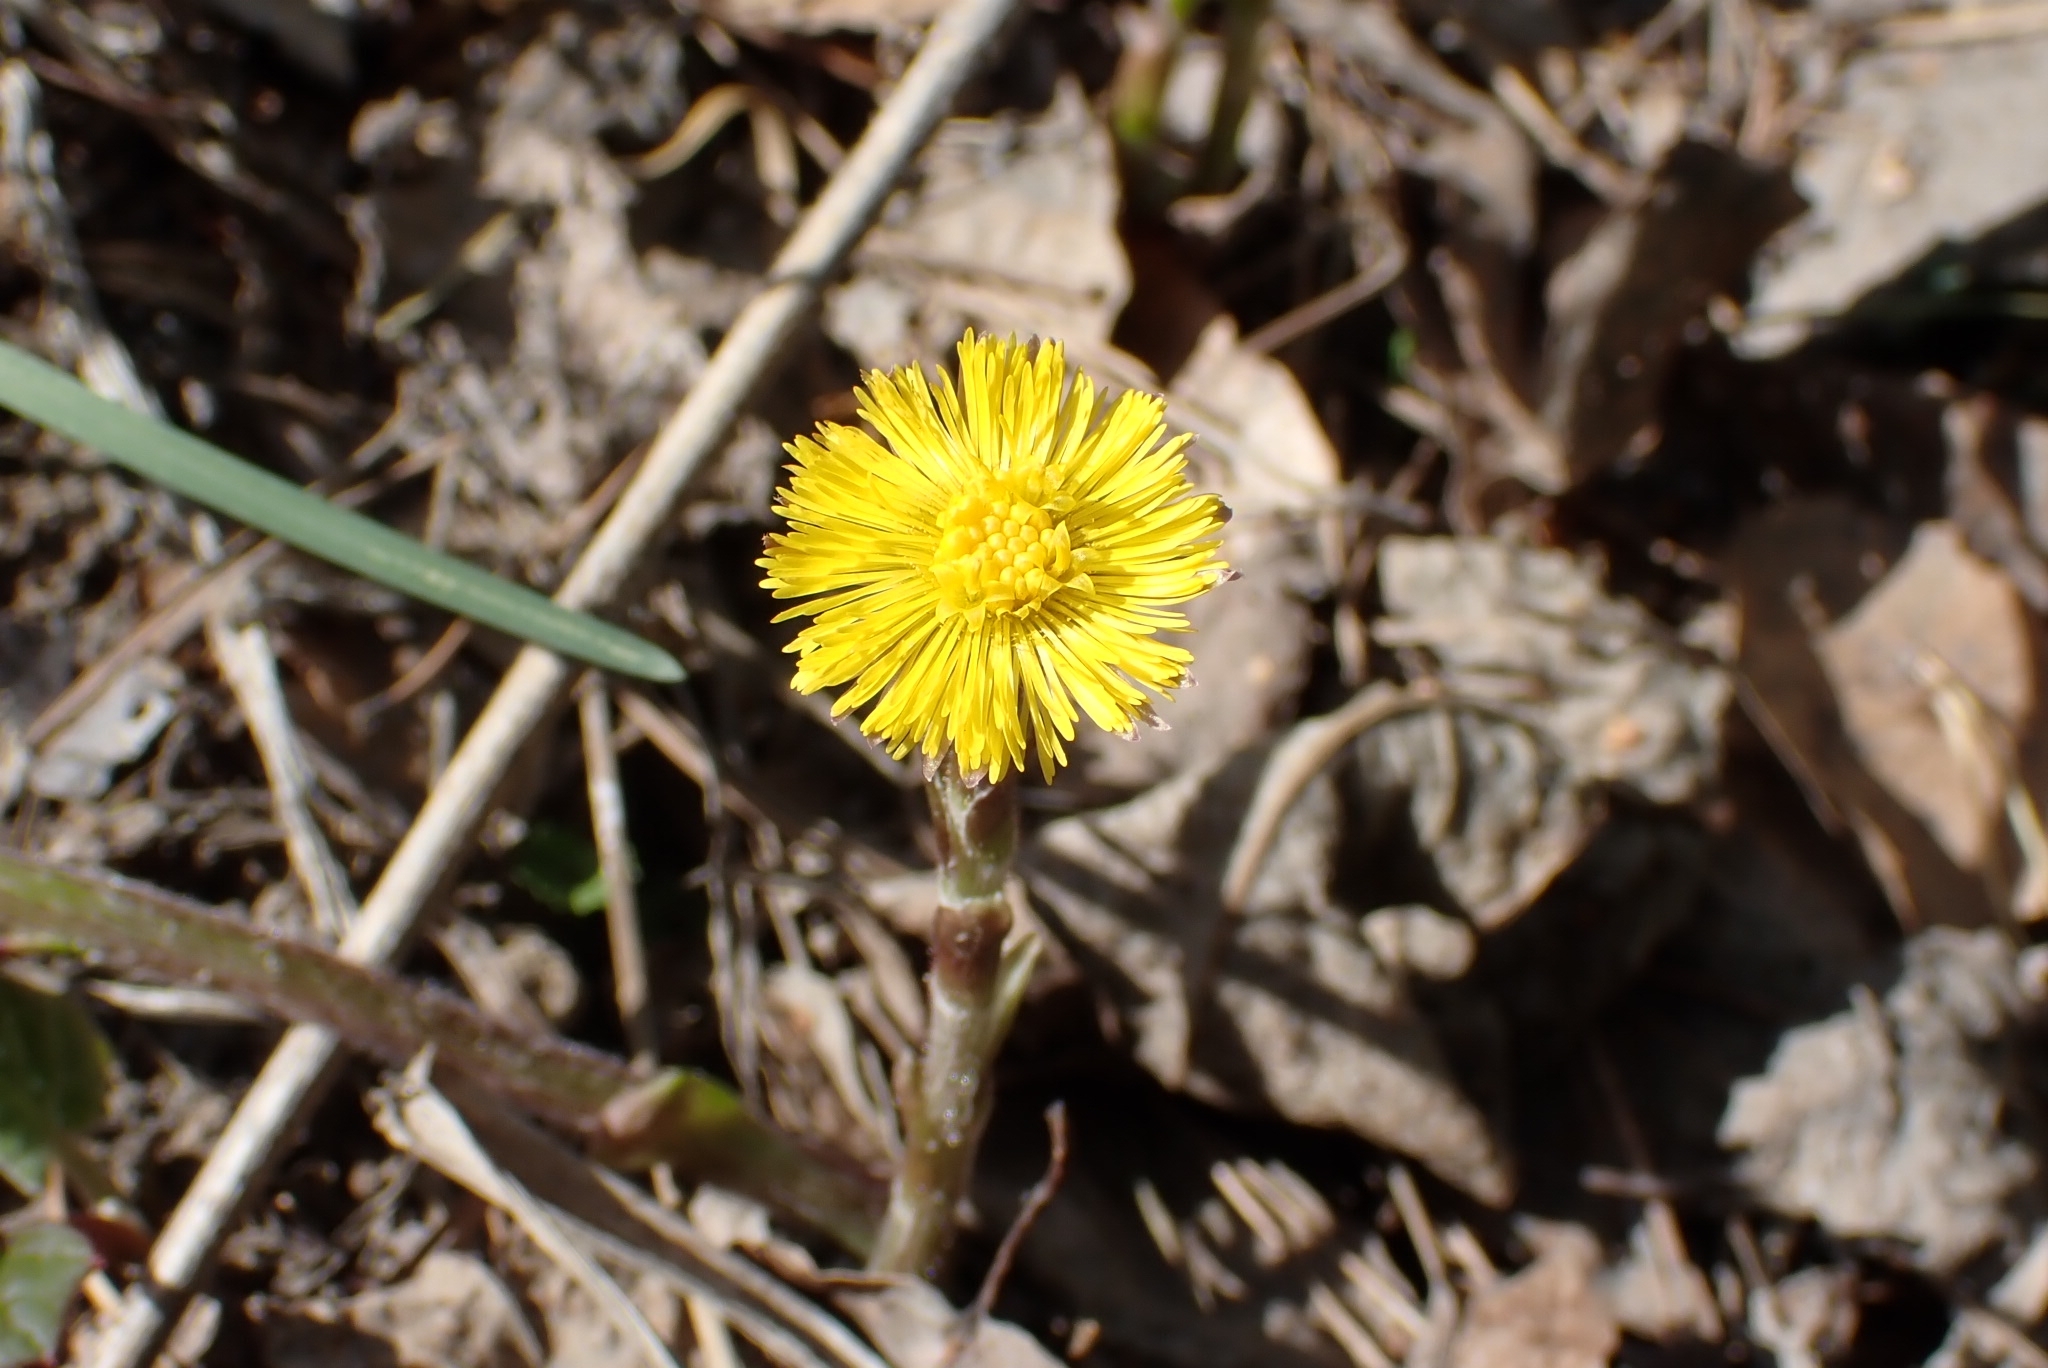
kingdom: Plantae
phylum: Tracheophyta
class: Magnoliopsida
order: Asterales
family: Asteraceae
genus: Tussilago
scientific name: Tussilago farfara
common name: Coltsfoot
